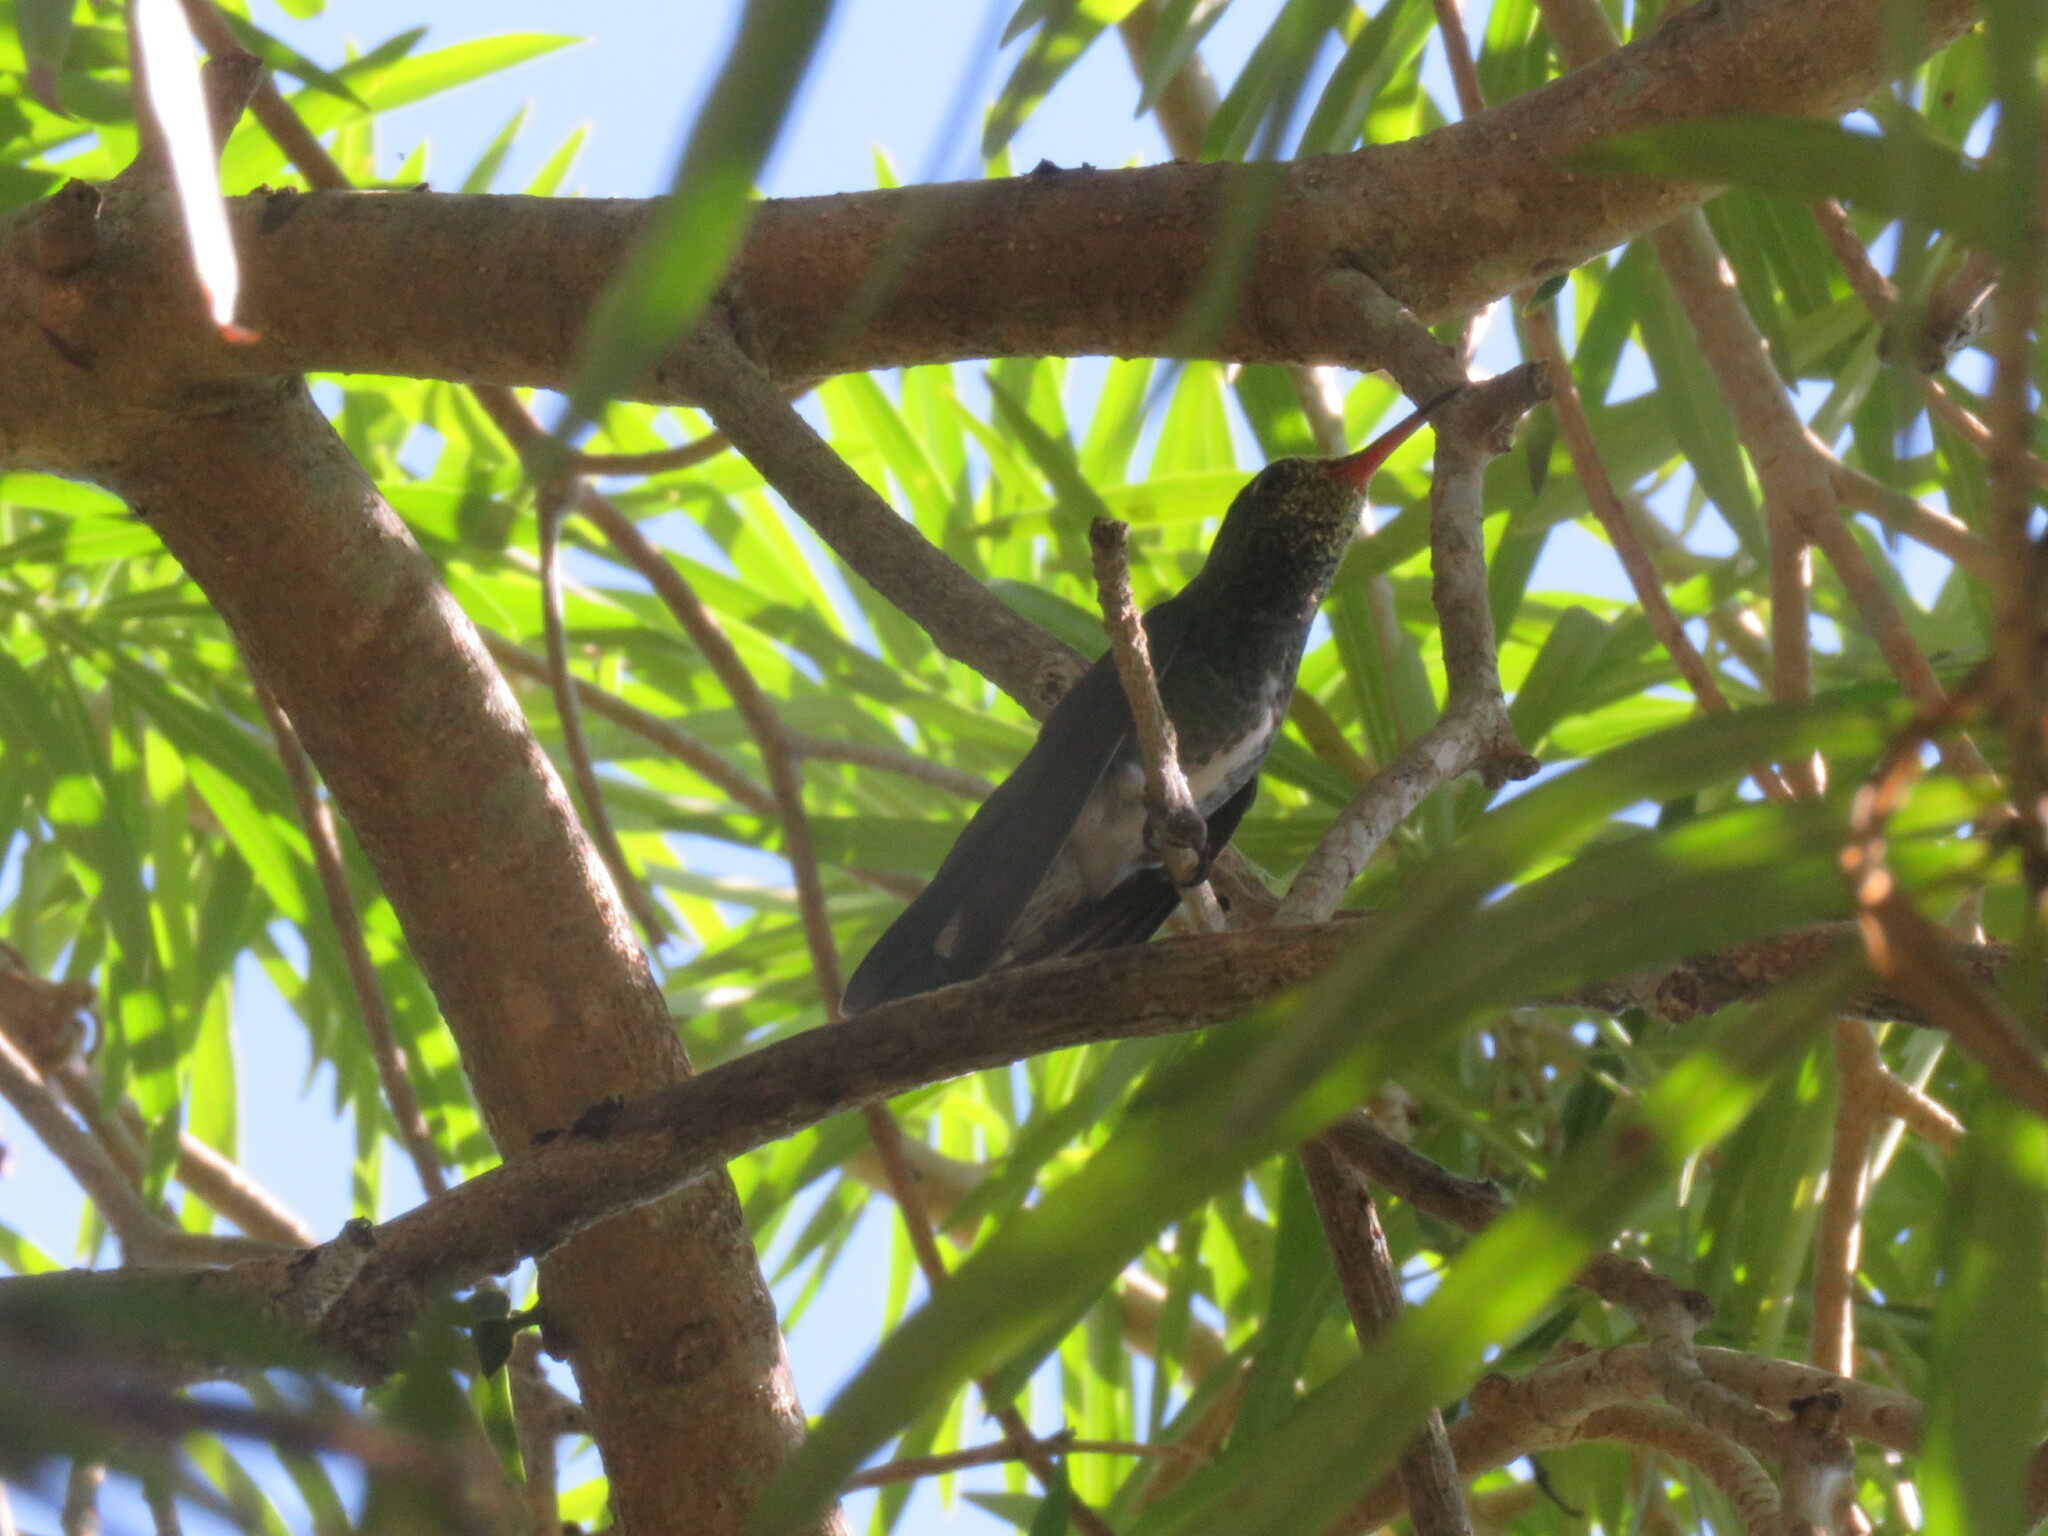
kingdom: Animalia
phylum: Chordata
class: Aves
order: Apodiformes
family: Trochilidae
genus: Chionomesa
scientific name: Chionomesa fimbriata
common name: Glittering-throated emerald
